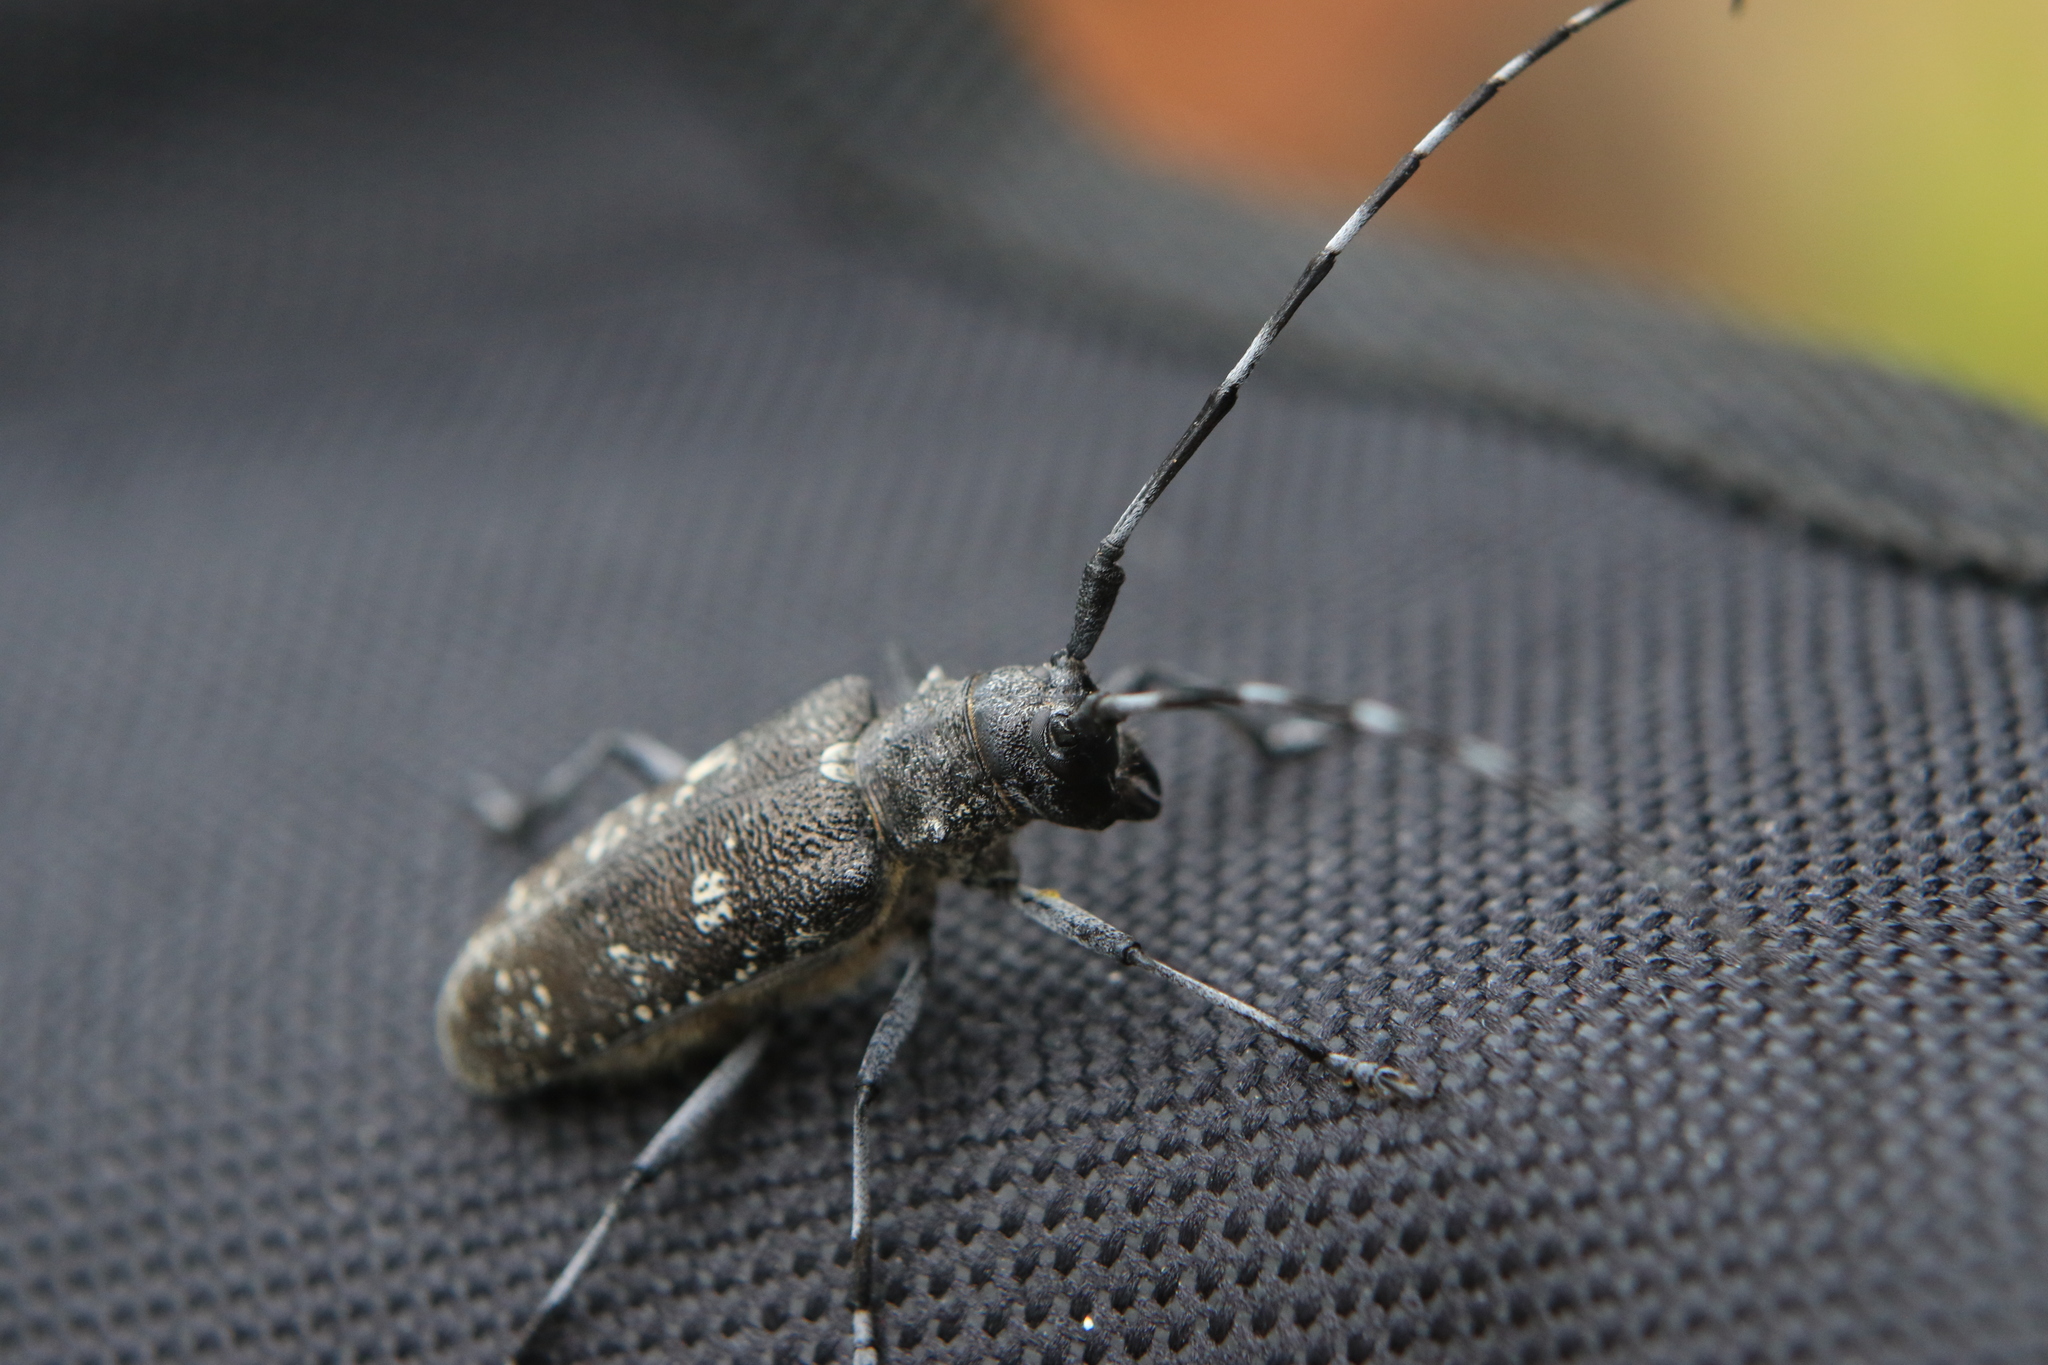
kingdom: Animalia
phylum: Arthropoda
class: Insecta
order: Coleoptera
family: Cerambycidae
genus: Monochamus
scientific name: Monochamus sutor
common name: Pine sawyer
